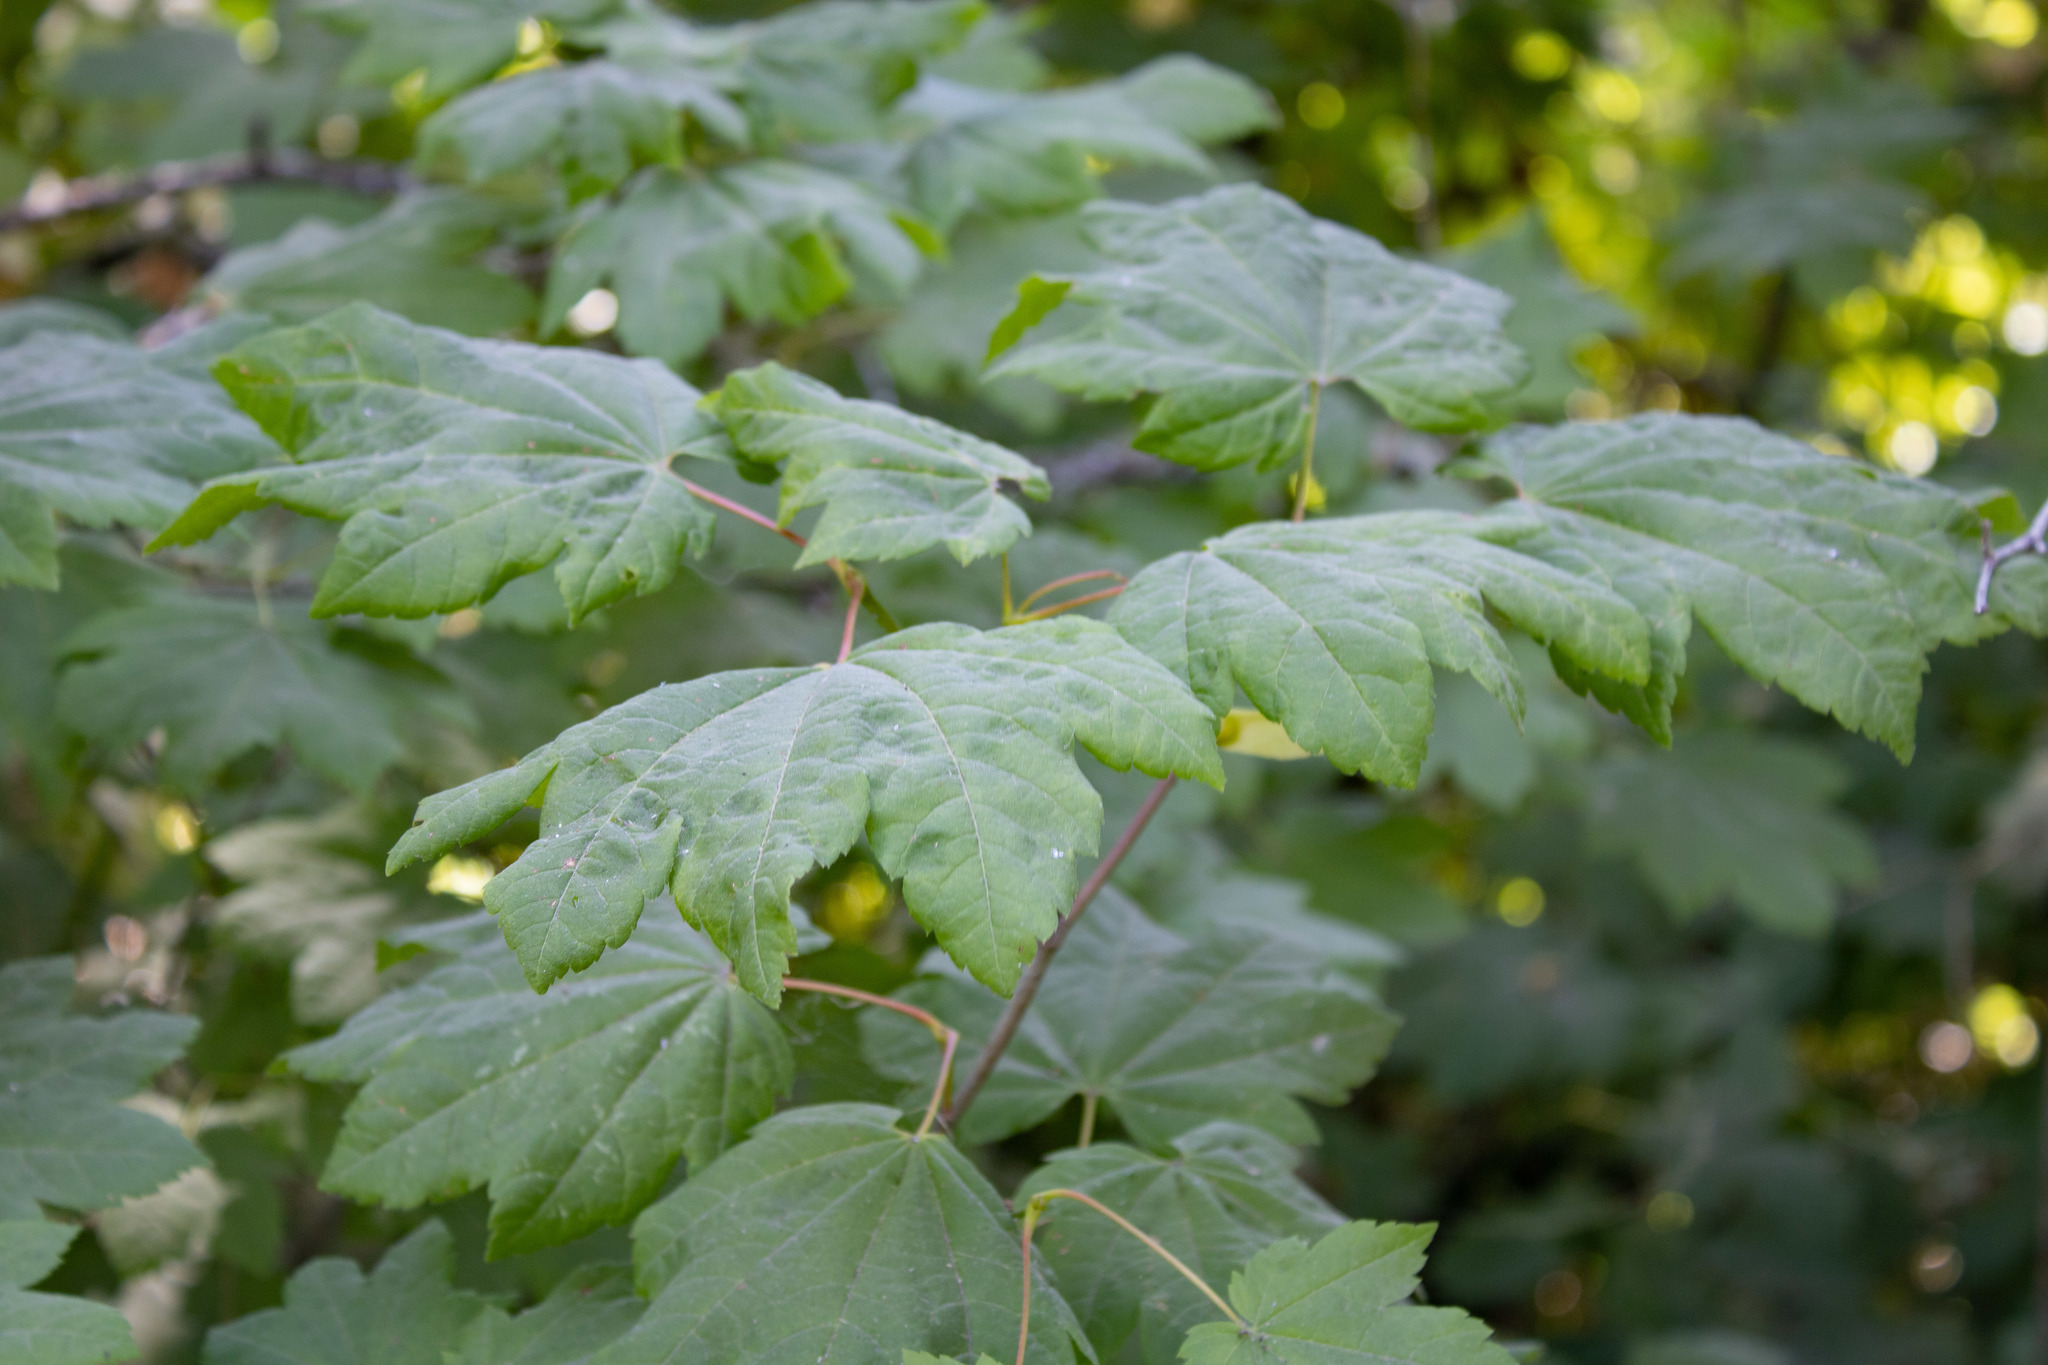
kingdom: Plantae
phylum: Tracheophyta
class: Magnoliopsida
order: Sapindales
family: Sapindaceae
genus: Acer
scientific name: Acer circinatum
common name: Vine maple
